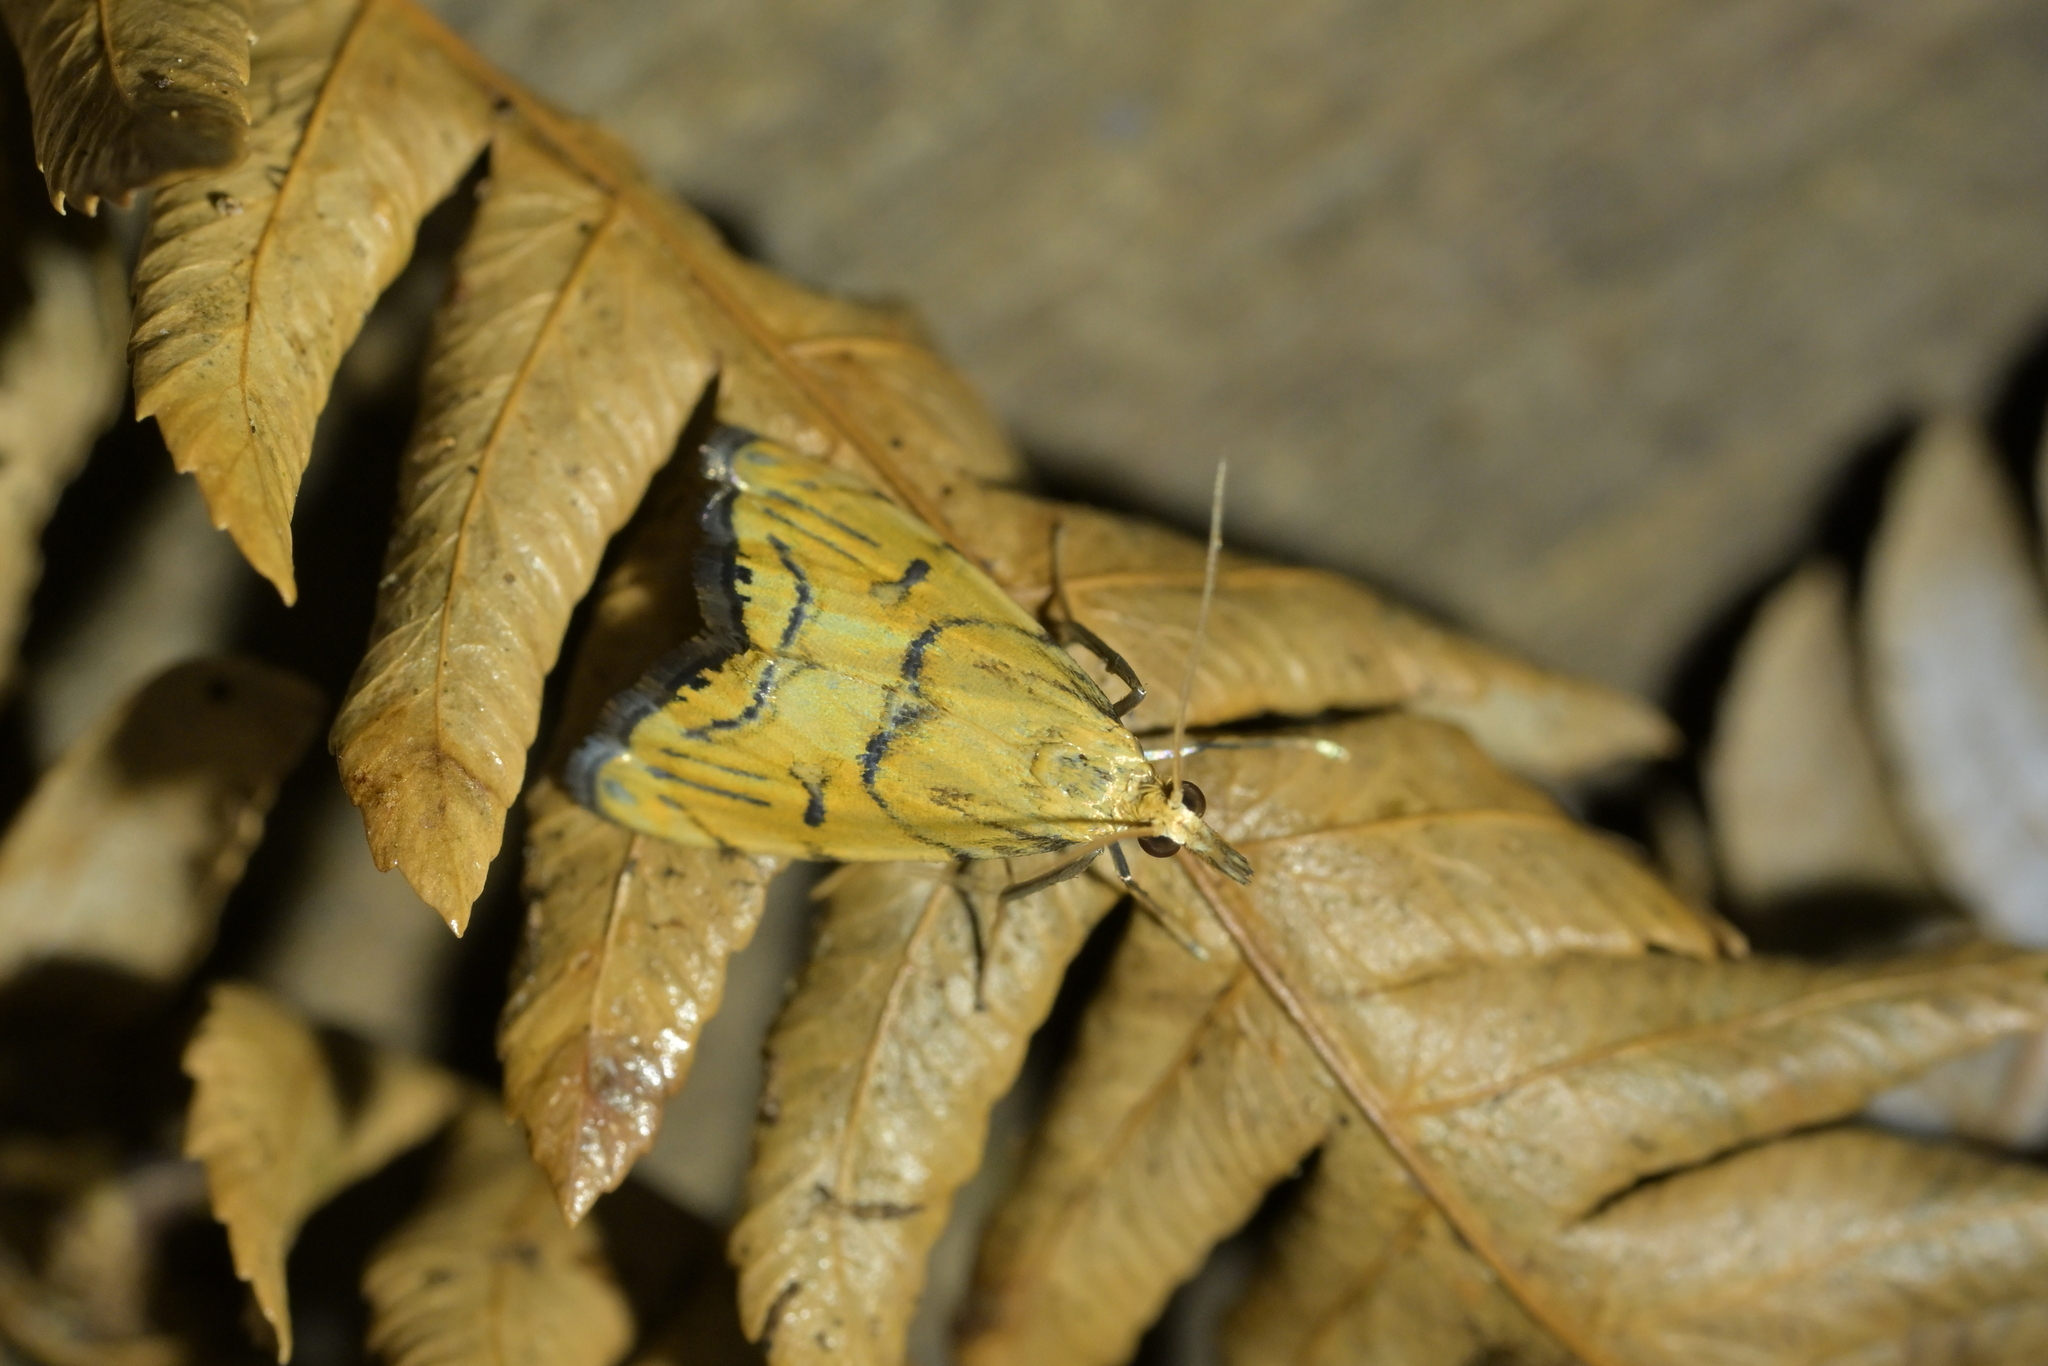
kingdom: Animalia
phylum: Arthropoda
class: Insecta
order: Lepidoptera
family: Crambidae
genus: Glaucocharis
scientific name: Glaucocharis auriscriptella
